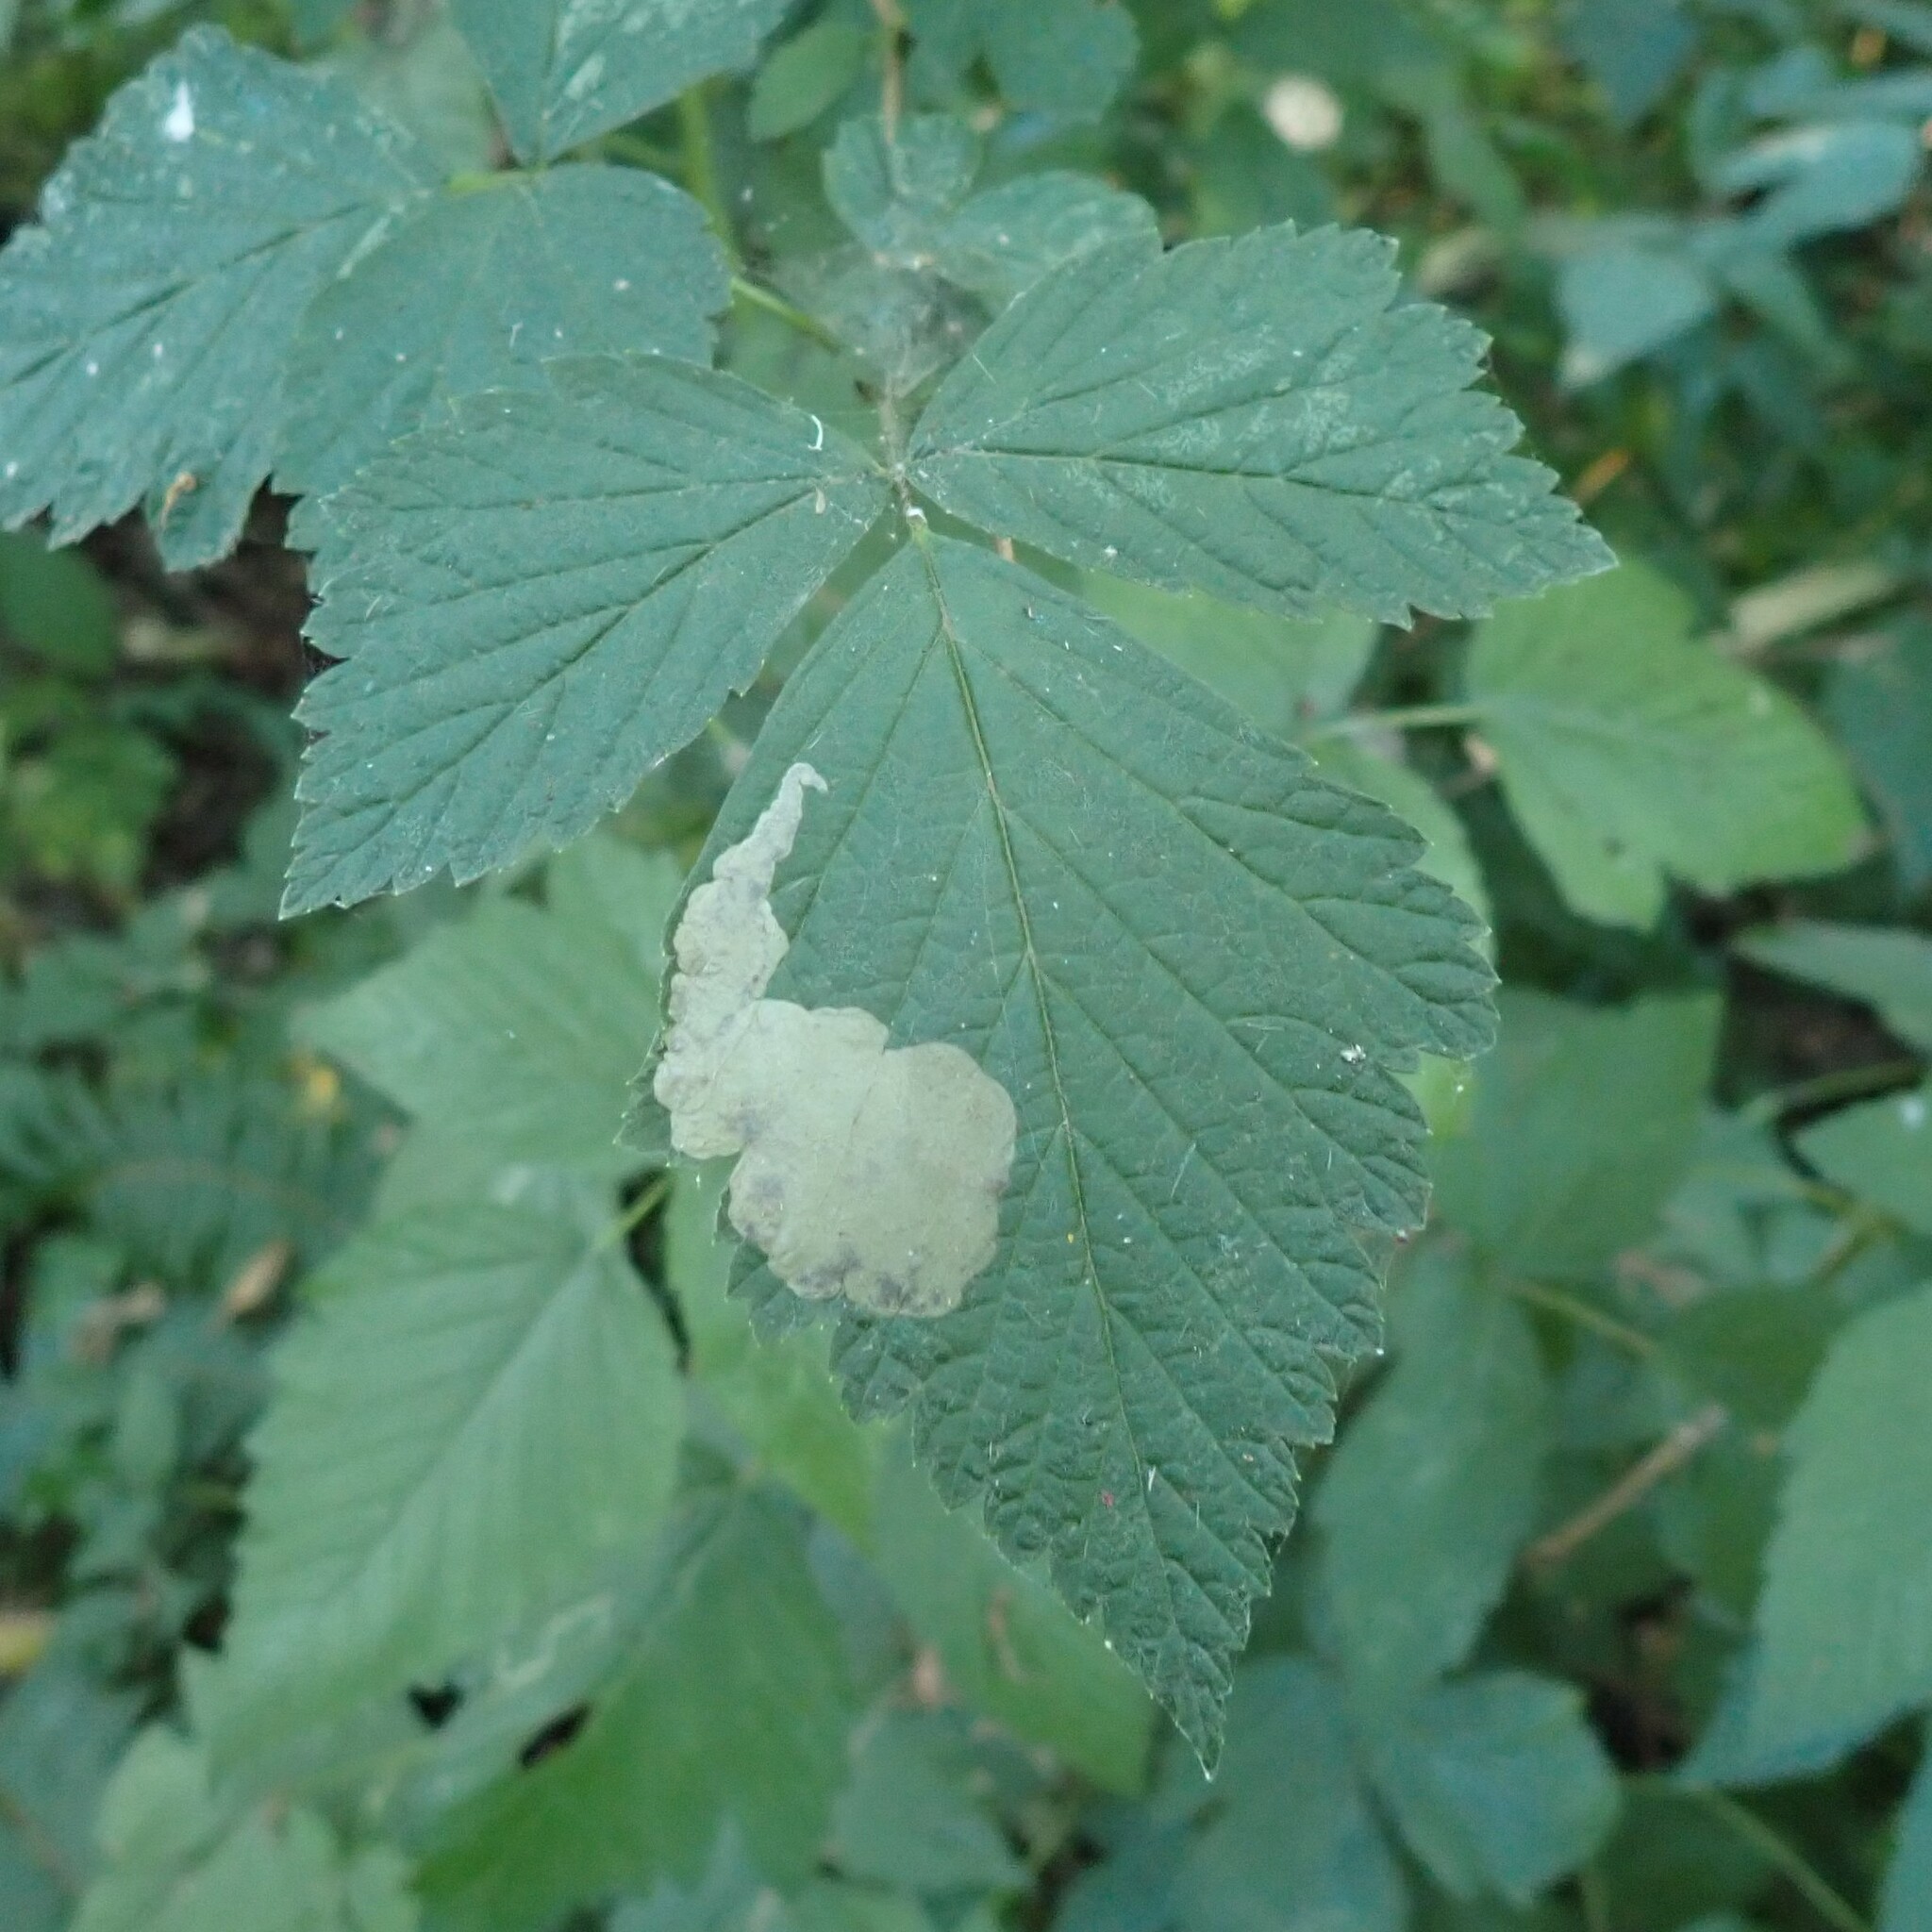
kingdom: Animalia
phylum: Arthropoda
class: Insecta
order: Hymenoptera
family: Tenthredinidae
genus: Metallus
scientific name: Metallus capitalis
